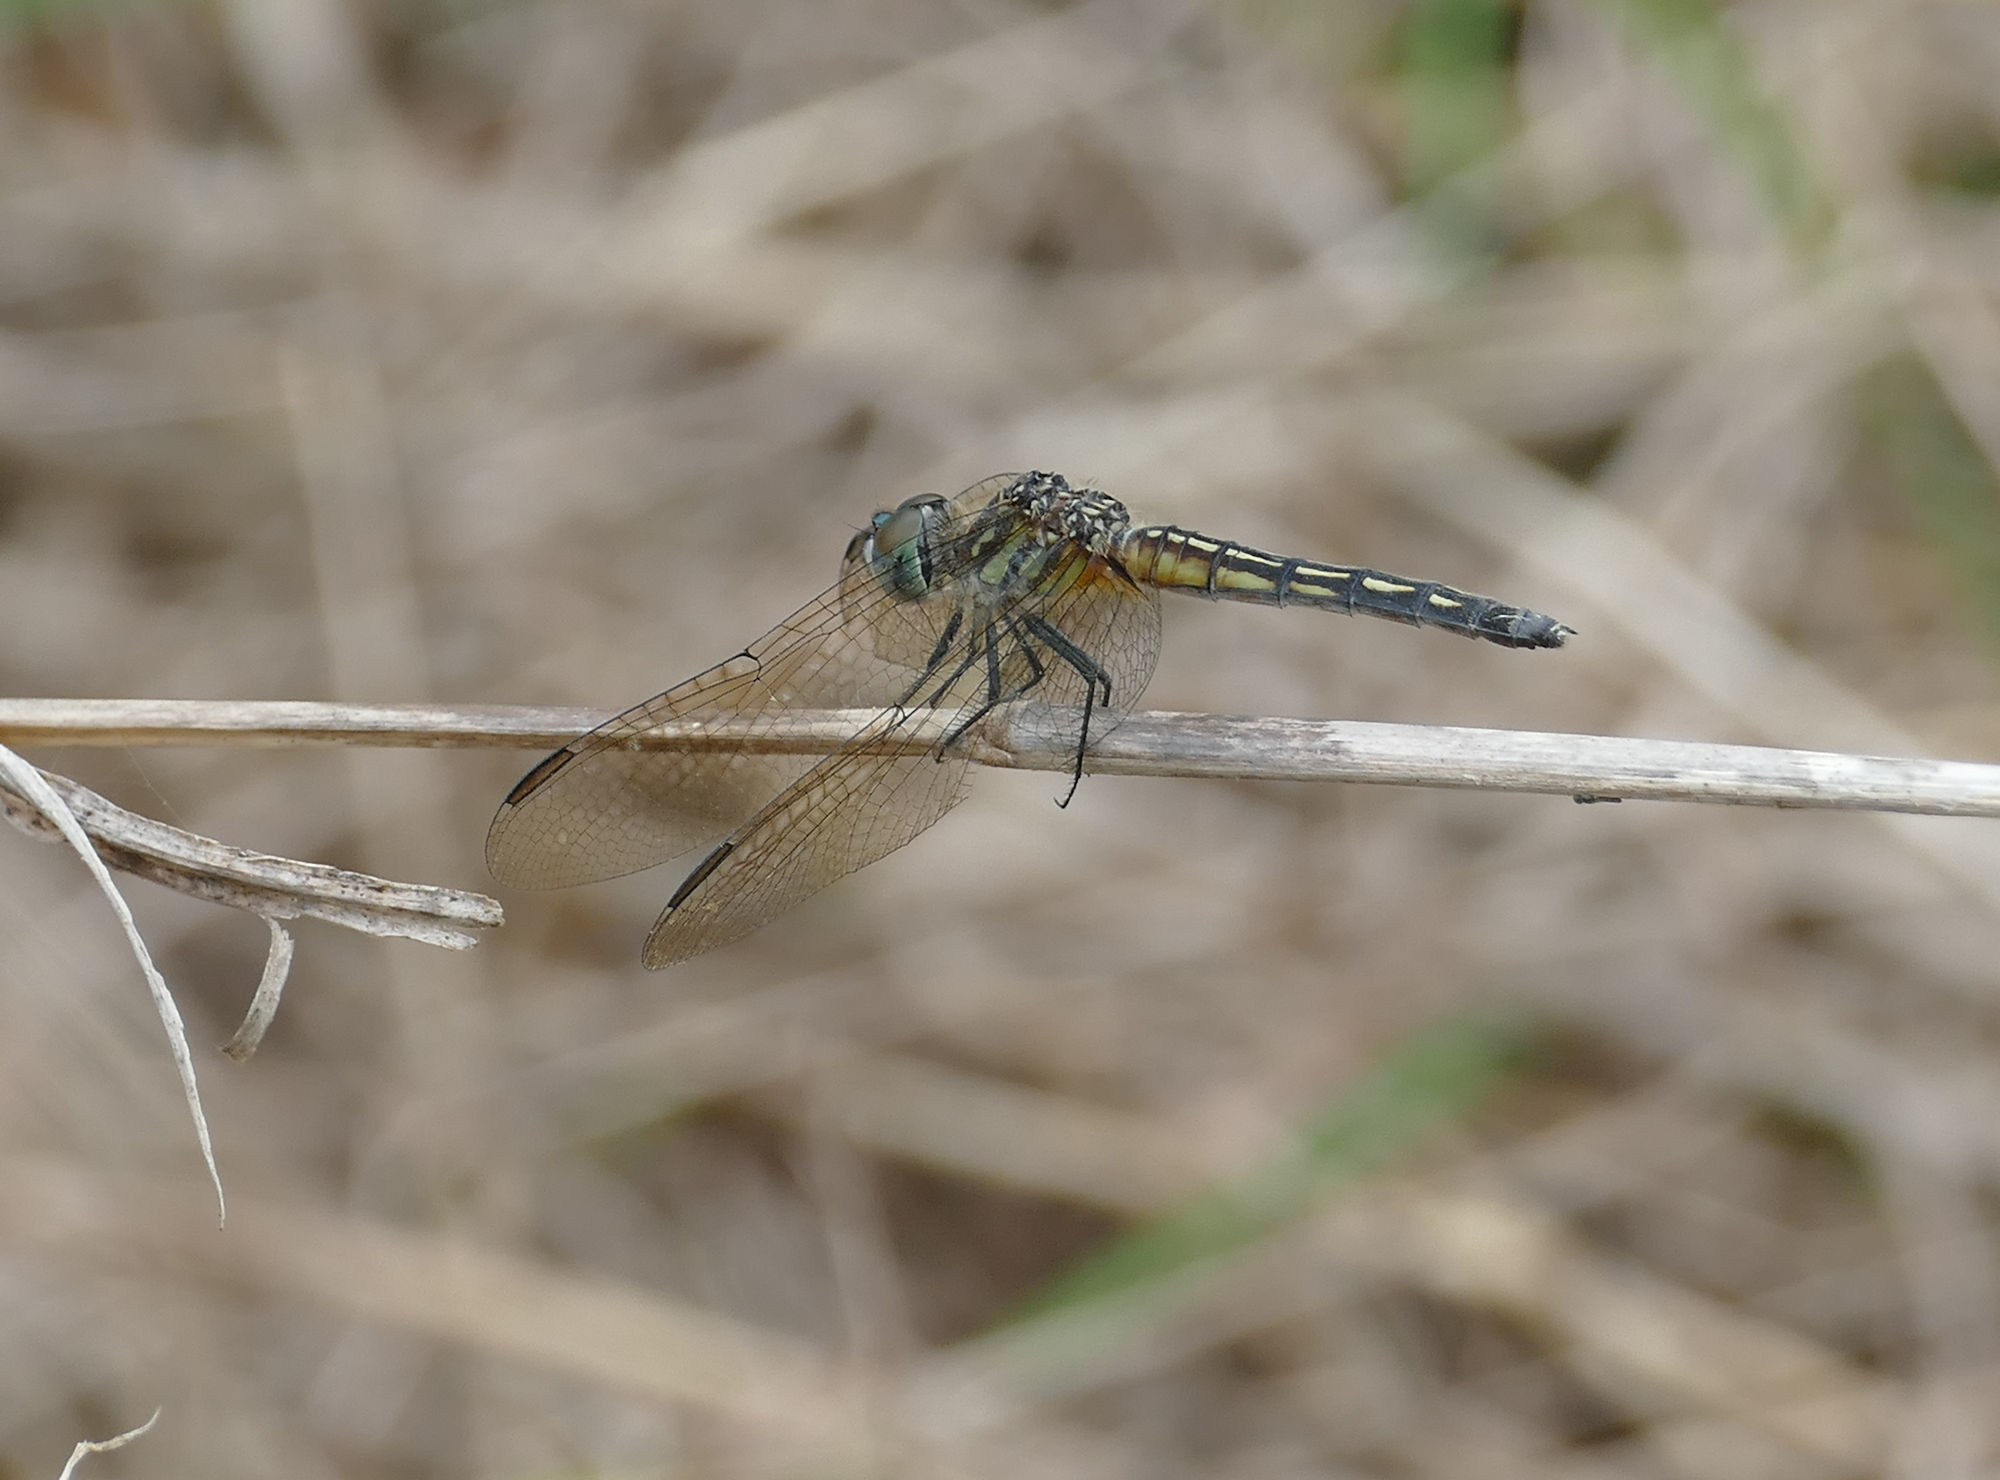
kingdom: Animalia
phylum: Arthropoda
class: Insecta
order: Odonata
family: Libellulidae
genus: Pachydiplax
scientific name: Pachydiplax longipennis
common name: Blue dasher
